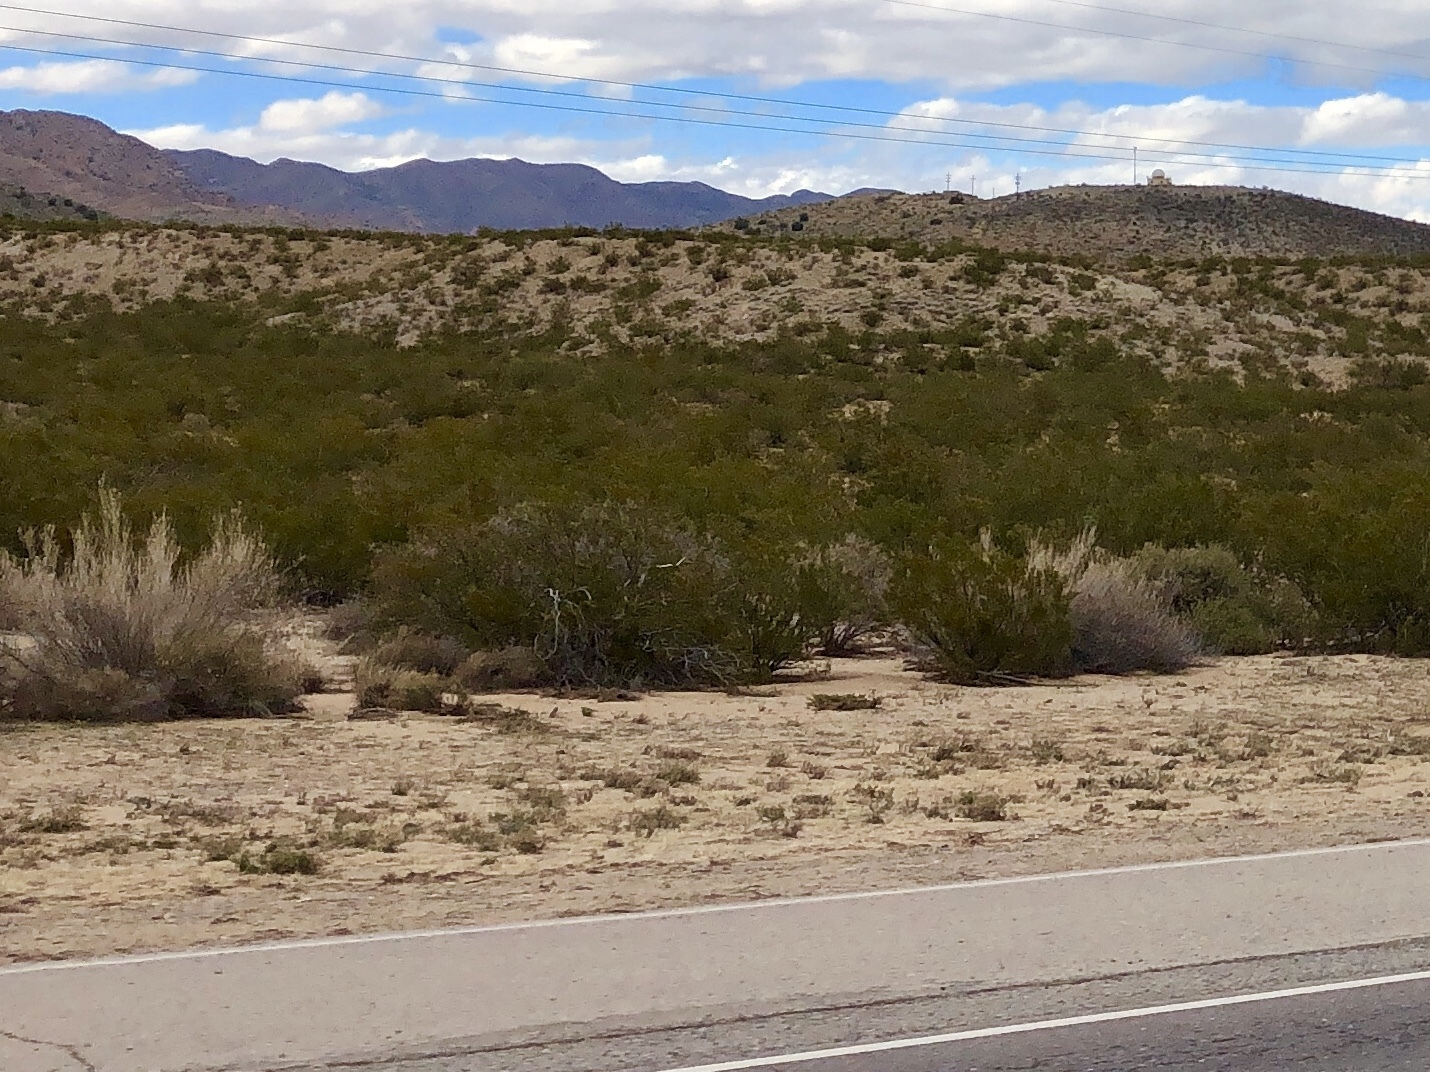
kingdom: Plantae
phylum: Tracheophyta
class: Magnoliopsida
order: Zygophyllales
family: Zygophyllaceae
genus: Larrea
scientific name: Larrea tridentata
